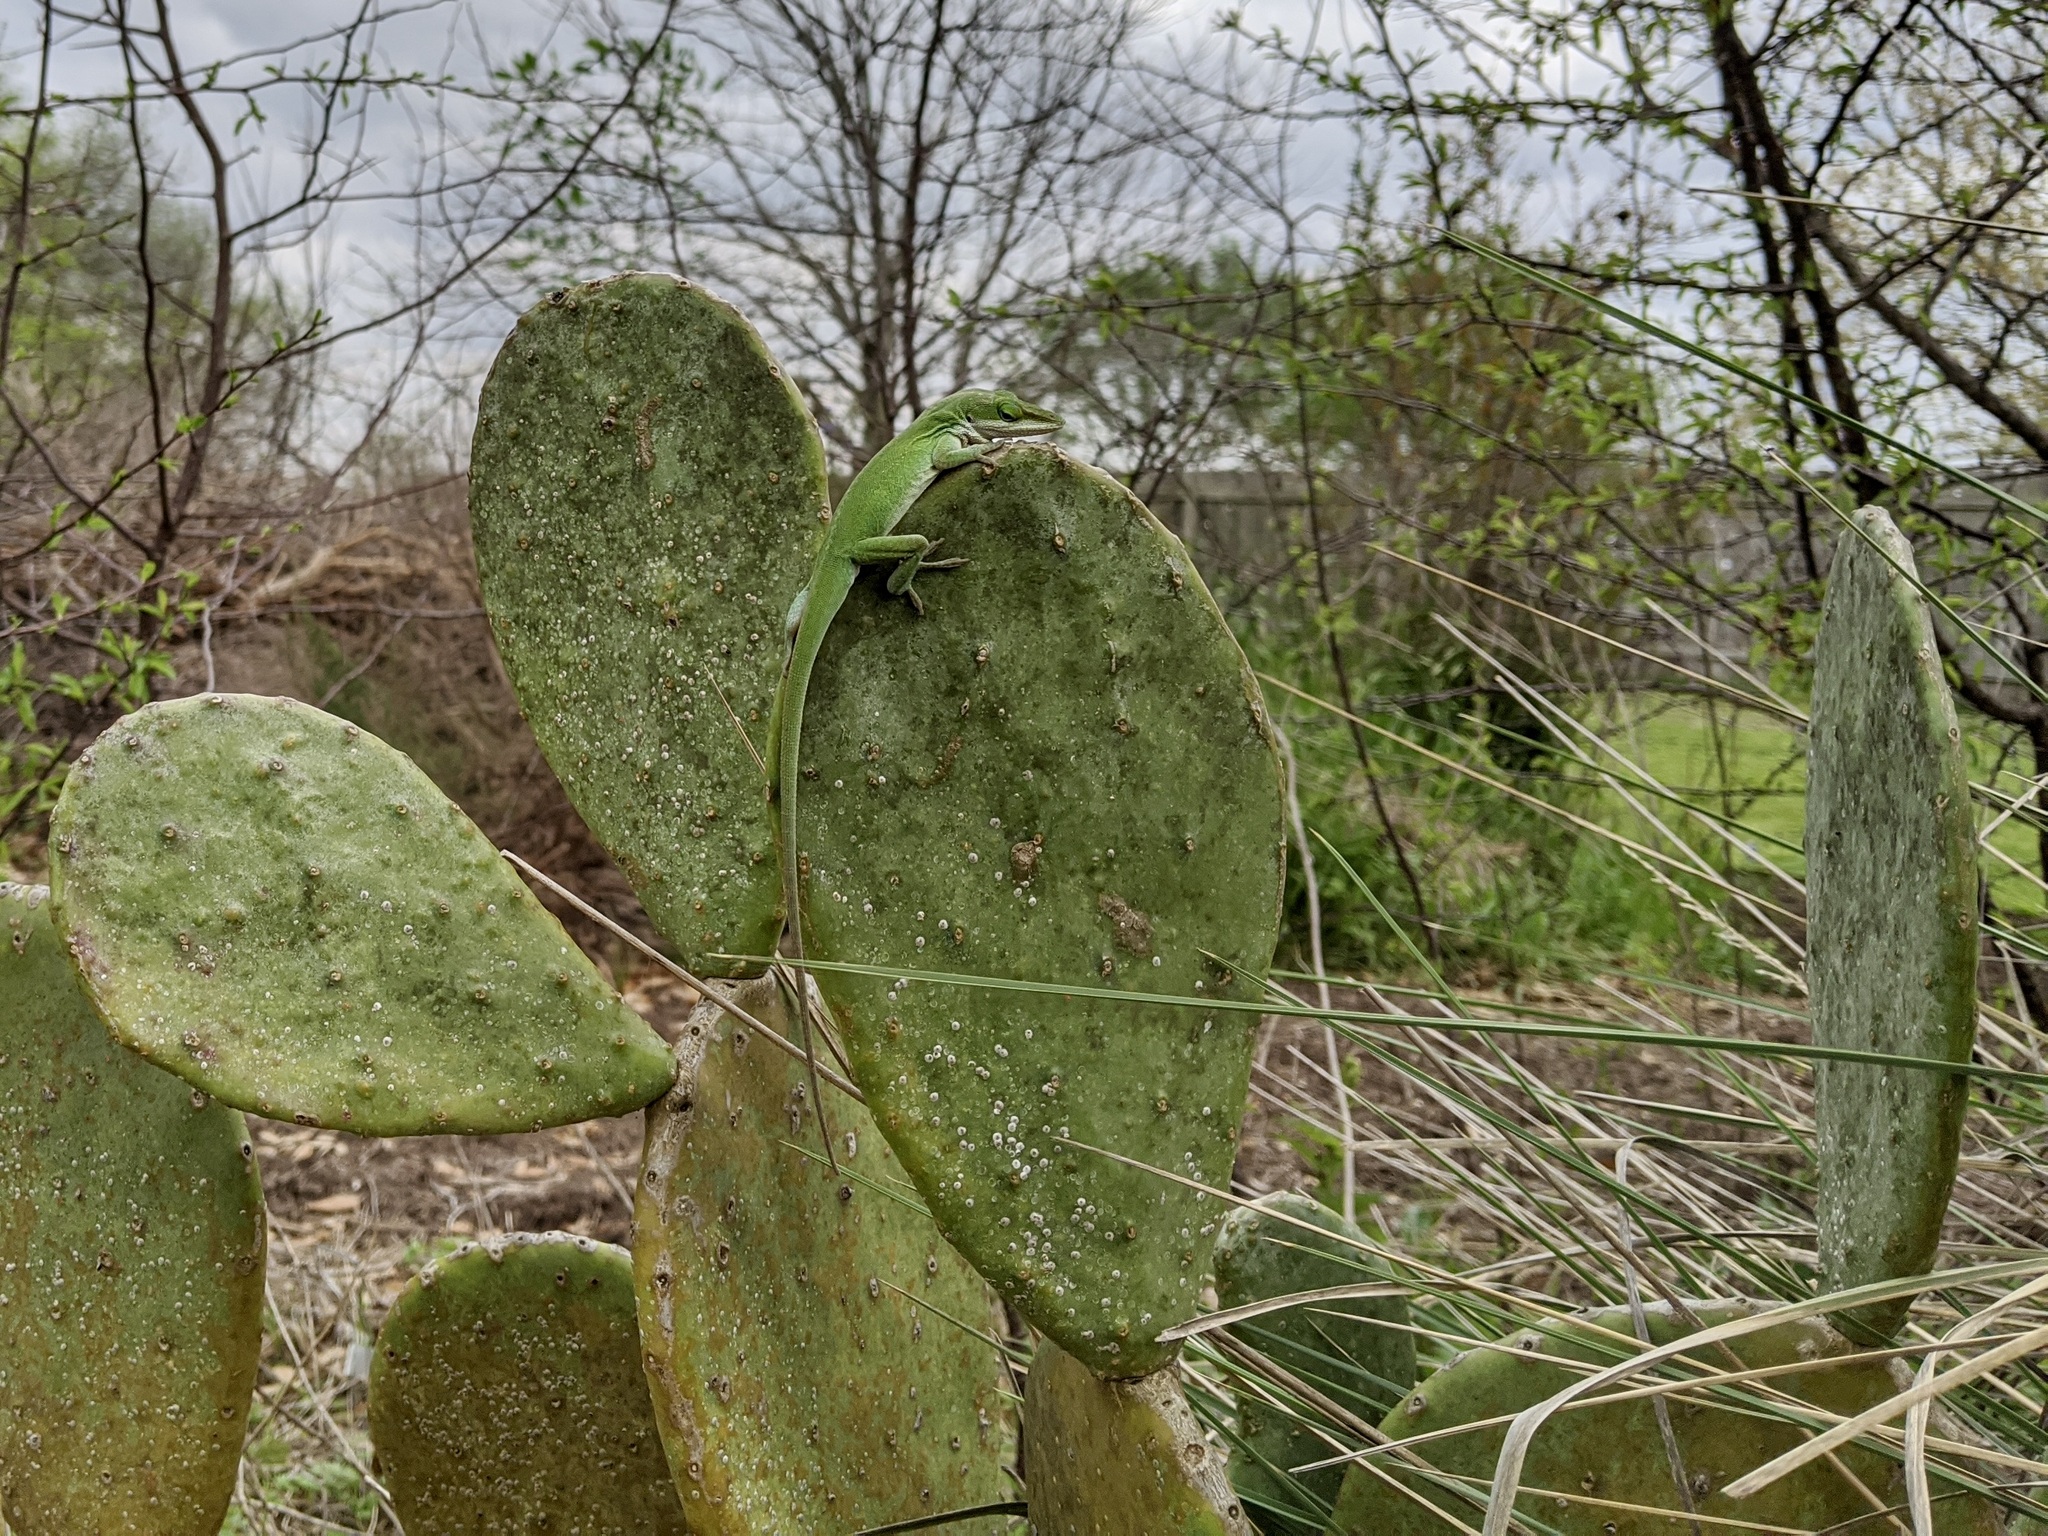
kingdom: Animalia
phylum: Chordata
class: Squamata
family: Dactyloidae
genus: Anolis
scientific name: Anolis carolinensis
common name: Green anole
